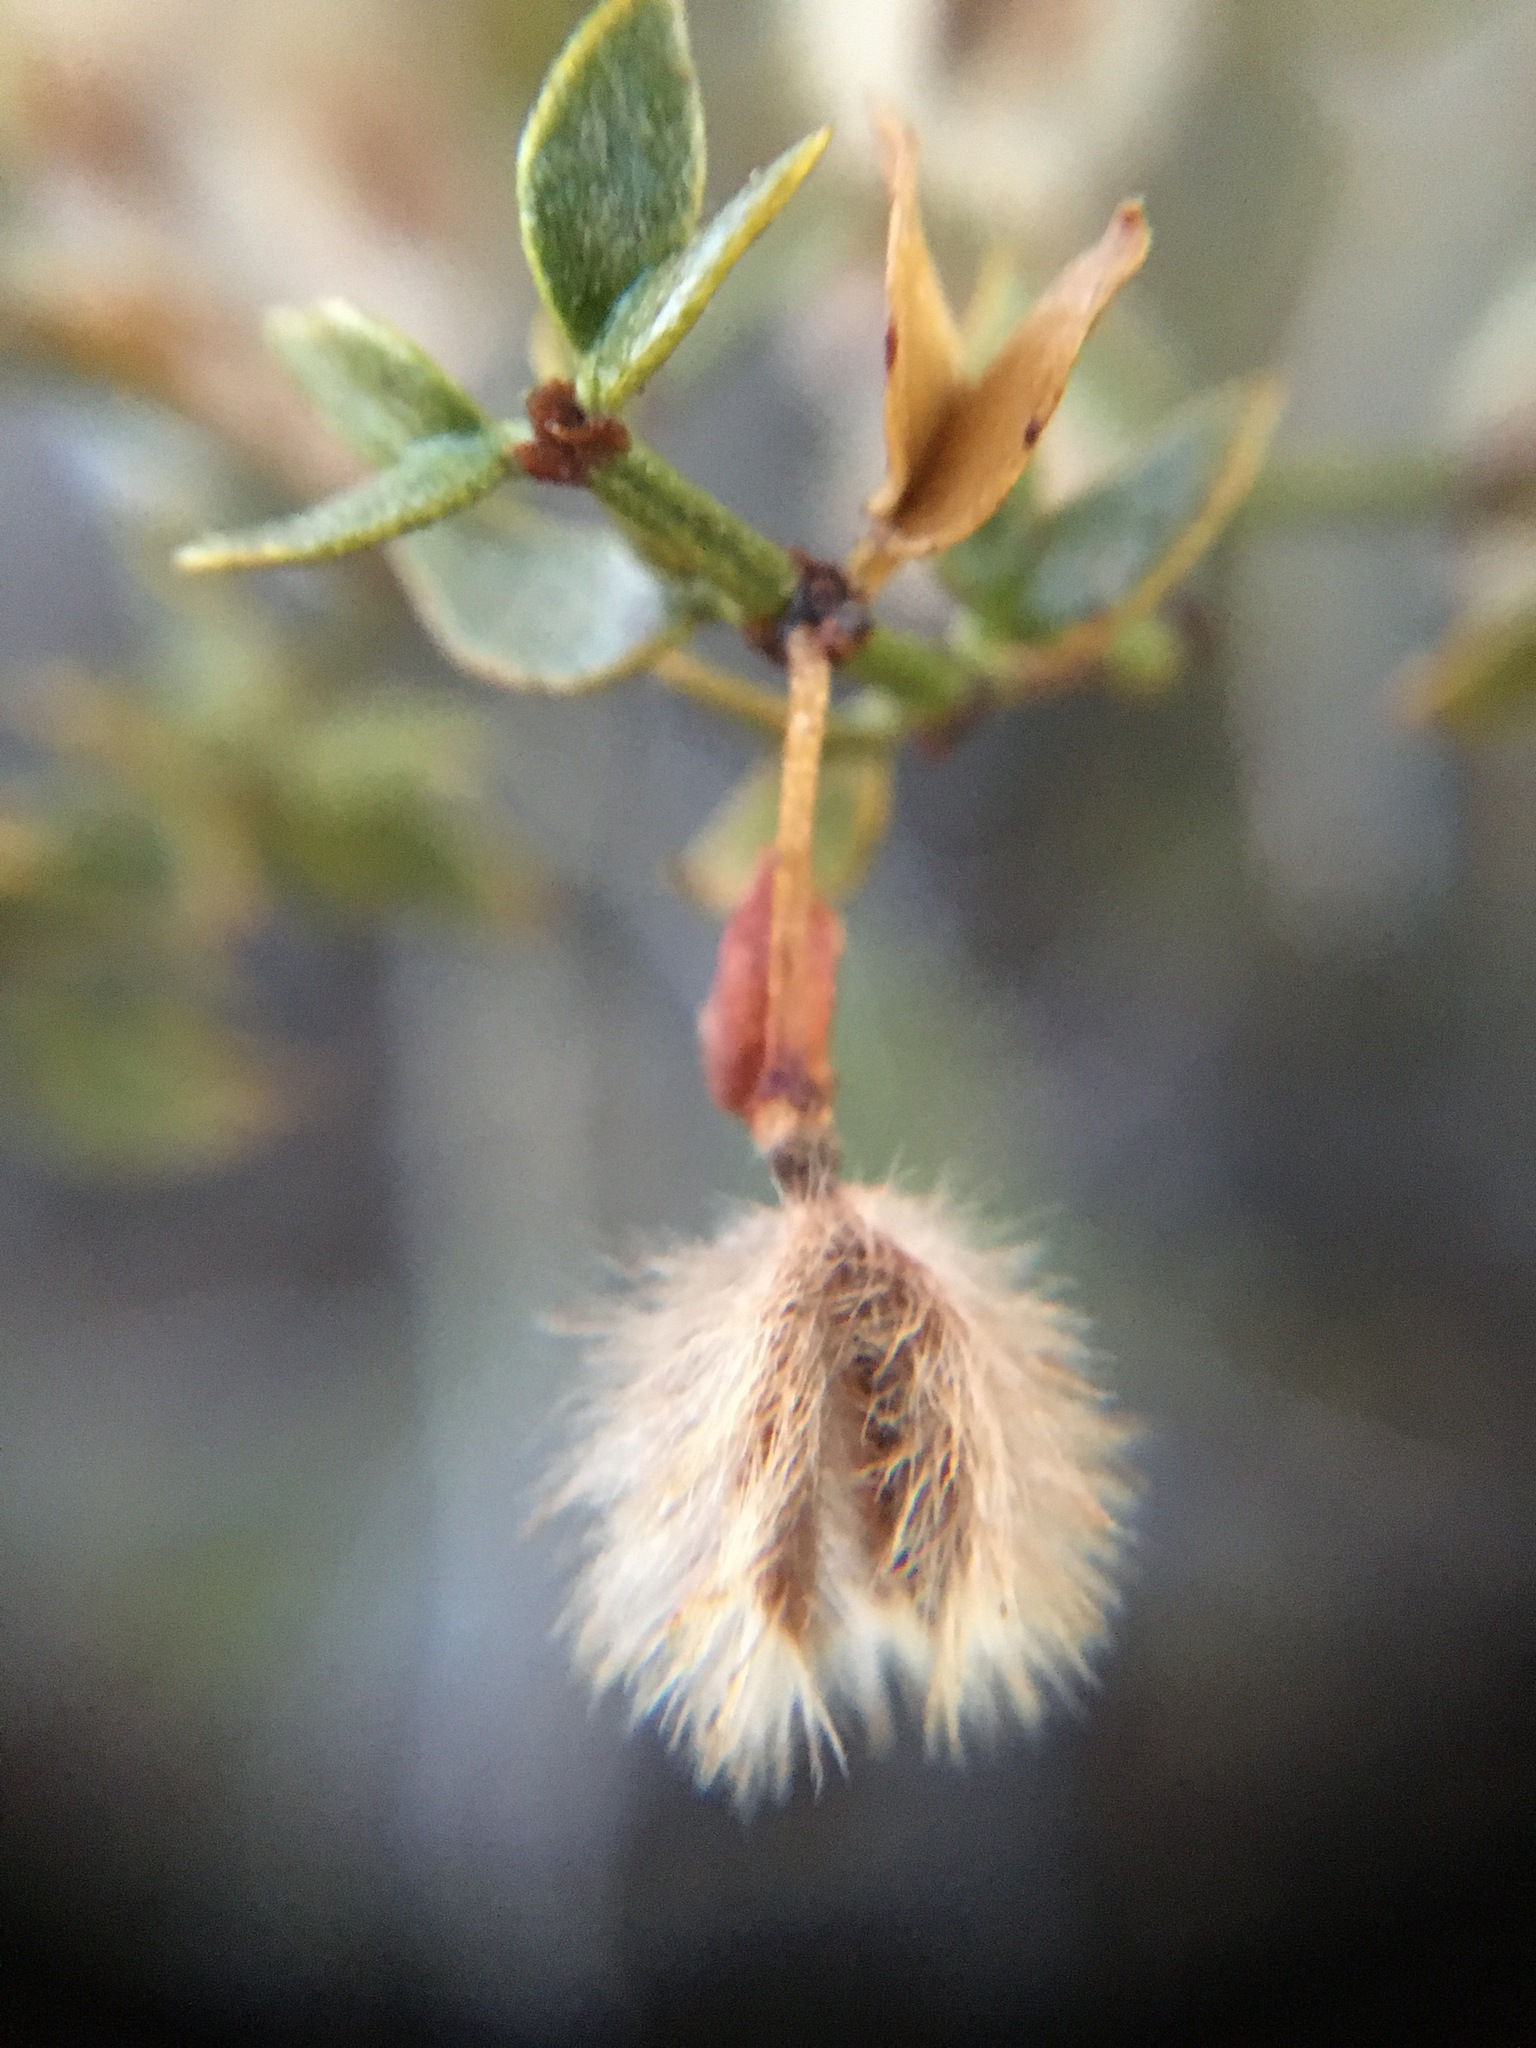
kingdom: Plantae
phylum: Tracheophyta
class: Magnoliopsida
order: Zygophyllales
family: Zygophyllaceae
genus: Larrea
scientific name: Larrea tridentata
